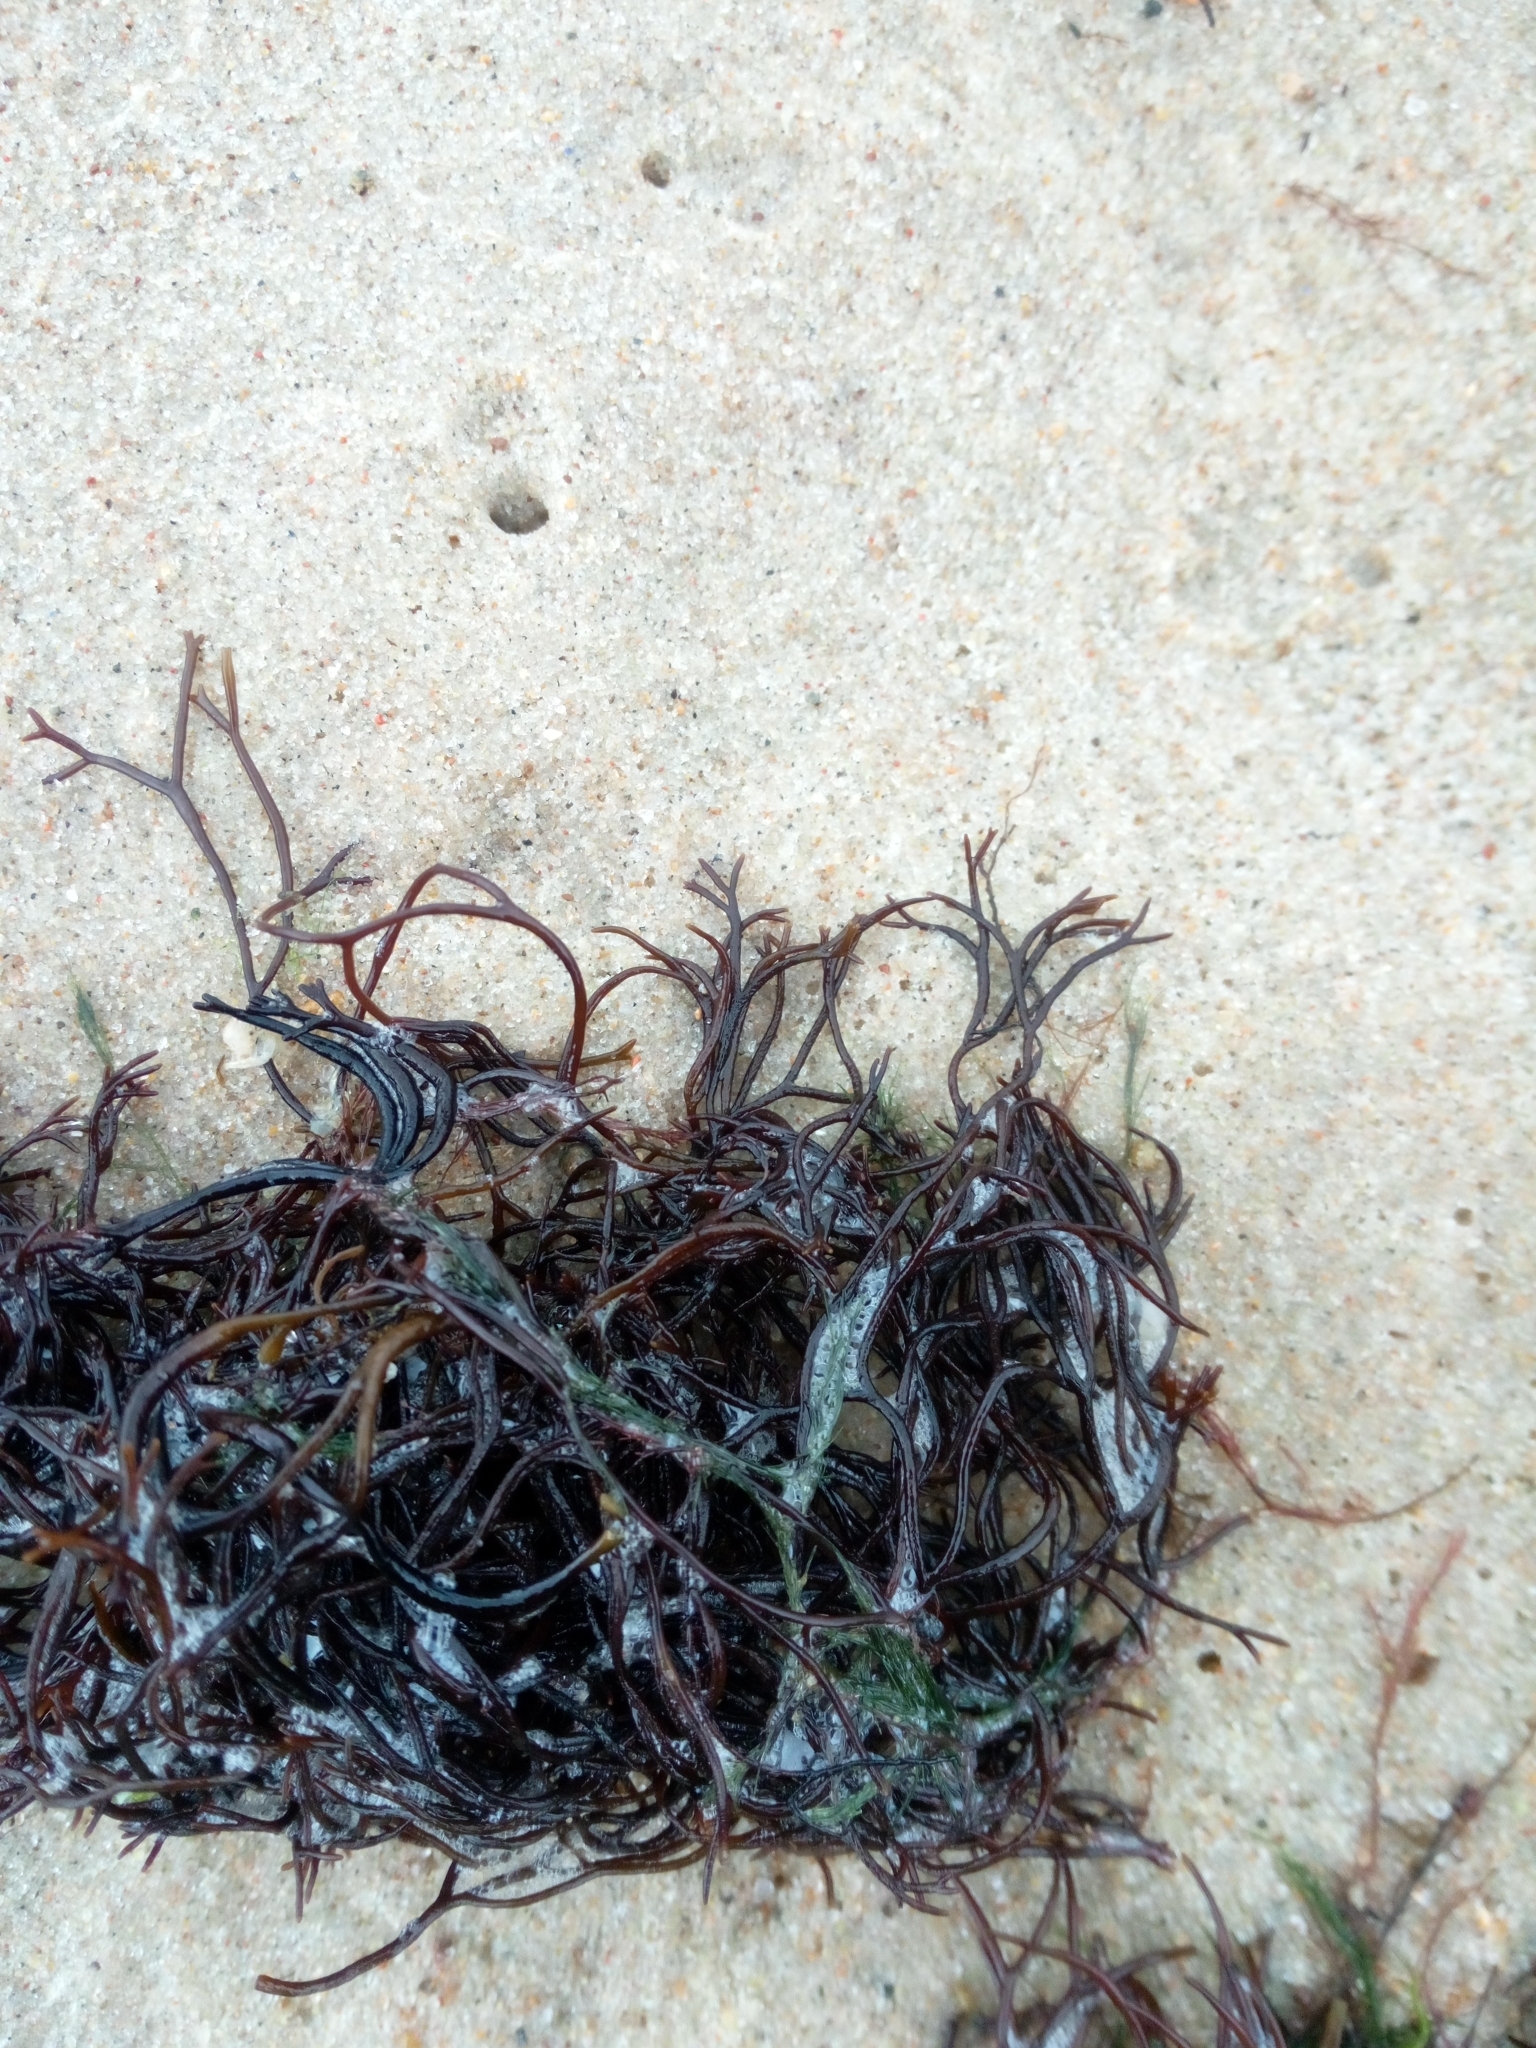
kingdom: Plantae
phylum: Rhodophyta
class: Florideophyceae
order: Gigartinales
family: Furcellariaceae
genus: Furcellaria
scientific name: Furcellaria lumbricalis
